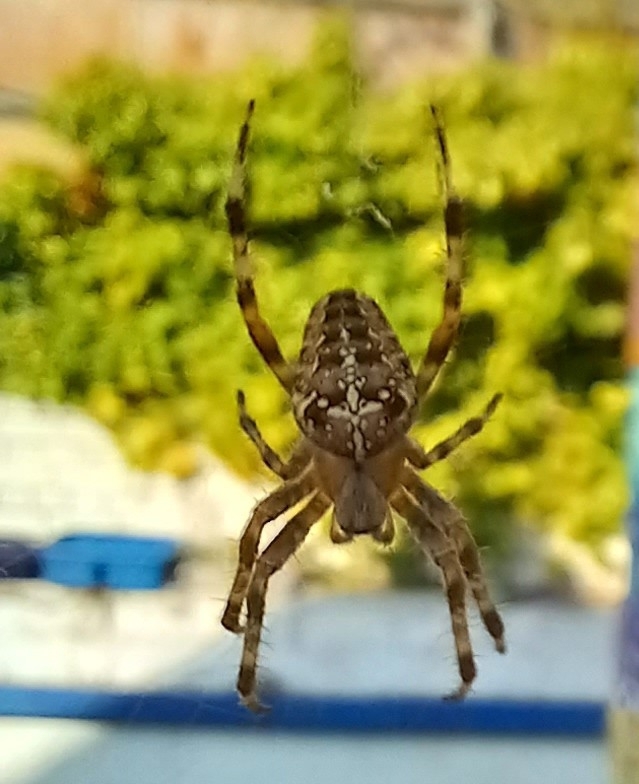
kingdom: Animalia
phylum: Arthropoda
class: Arachnida
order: Araneae
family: Araneidae
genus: Araneus
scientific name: Araneus diadematus
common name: Cross orbweaver
